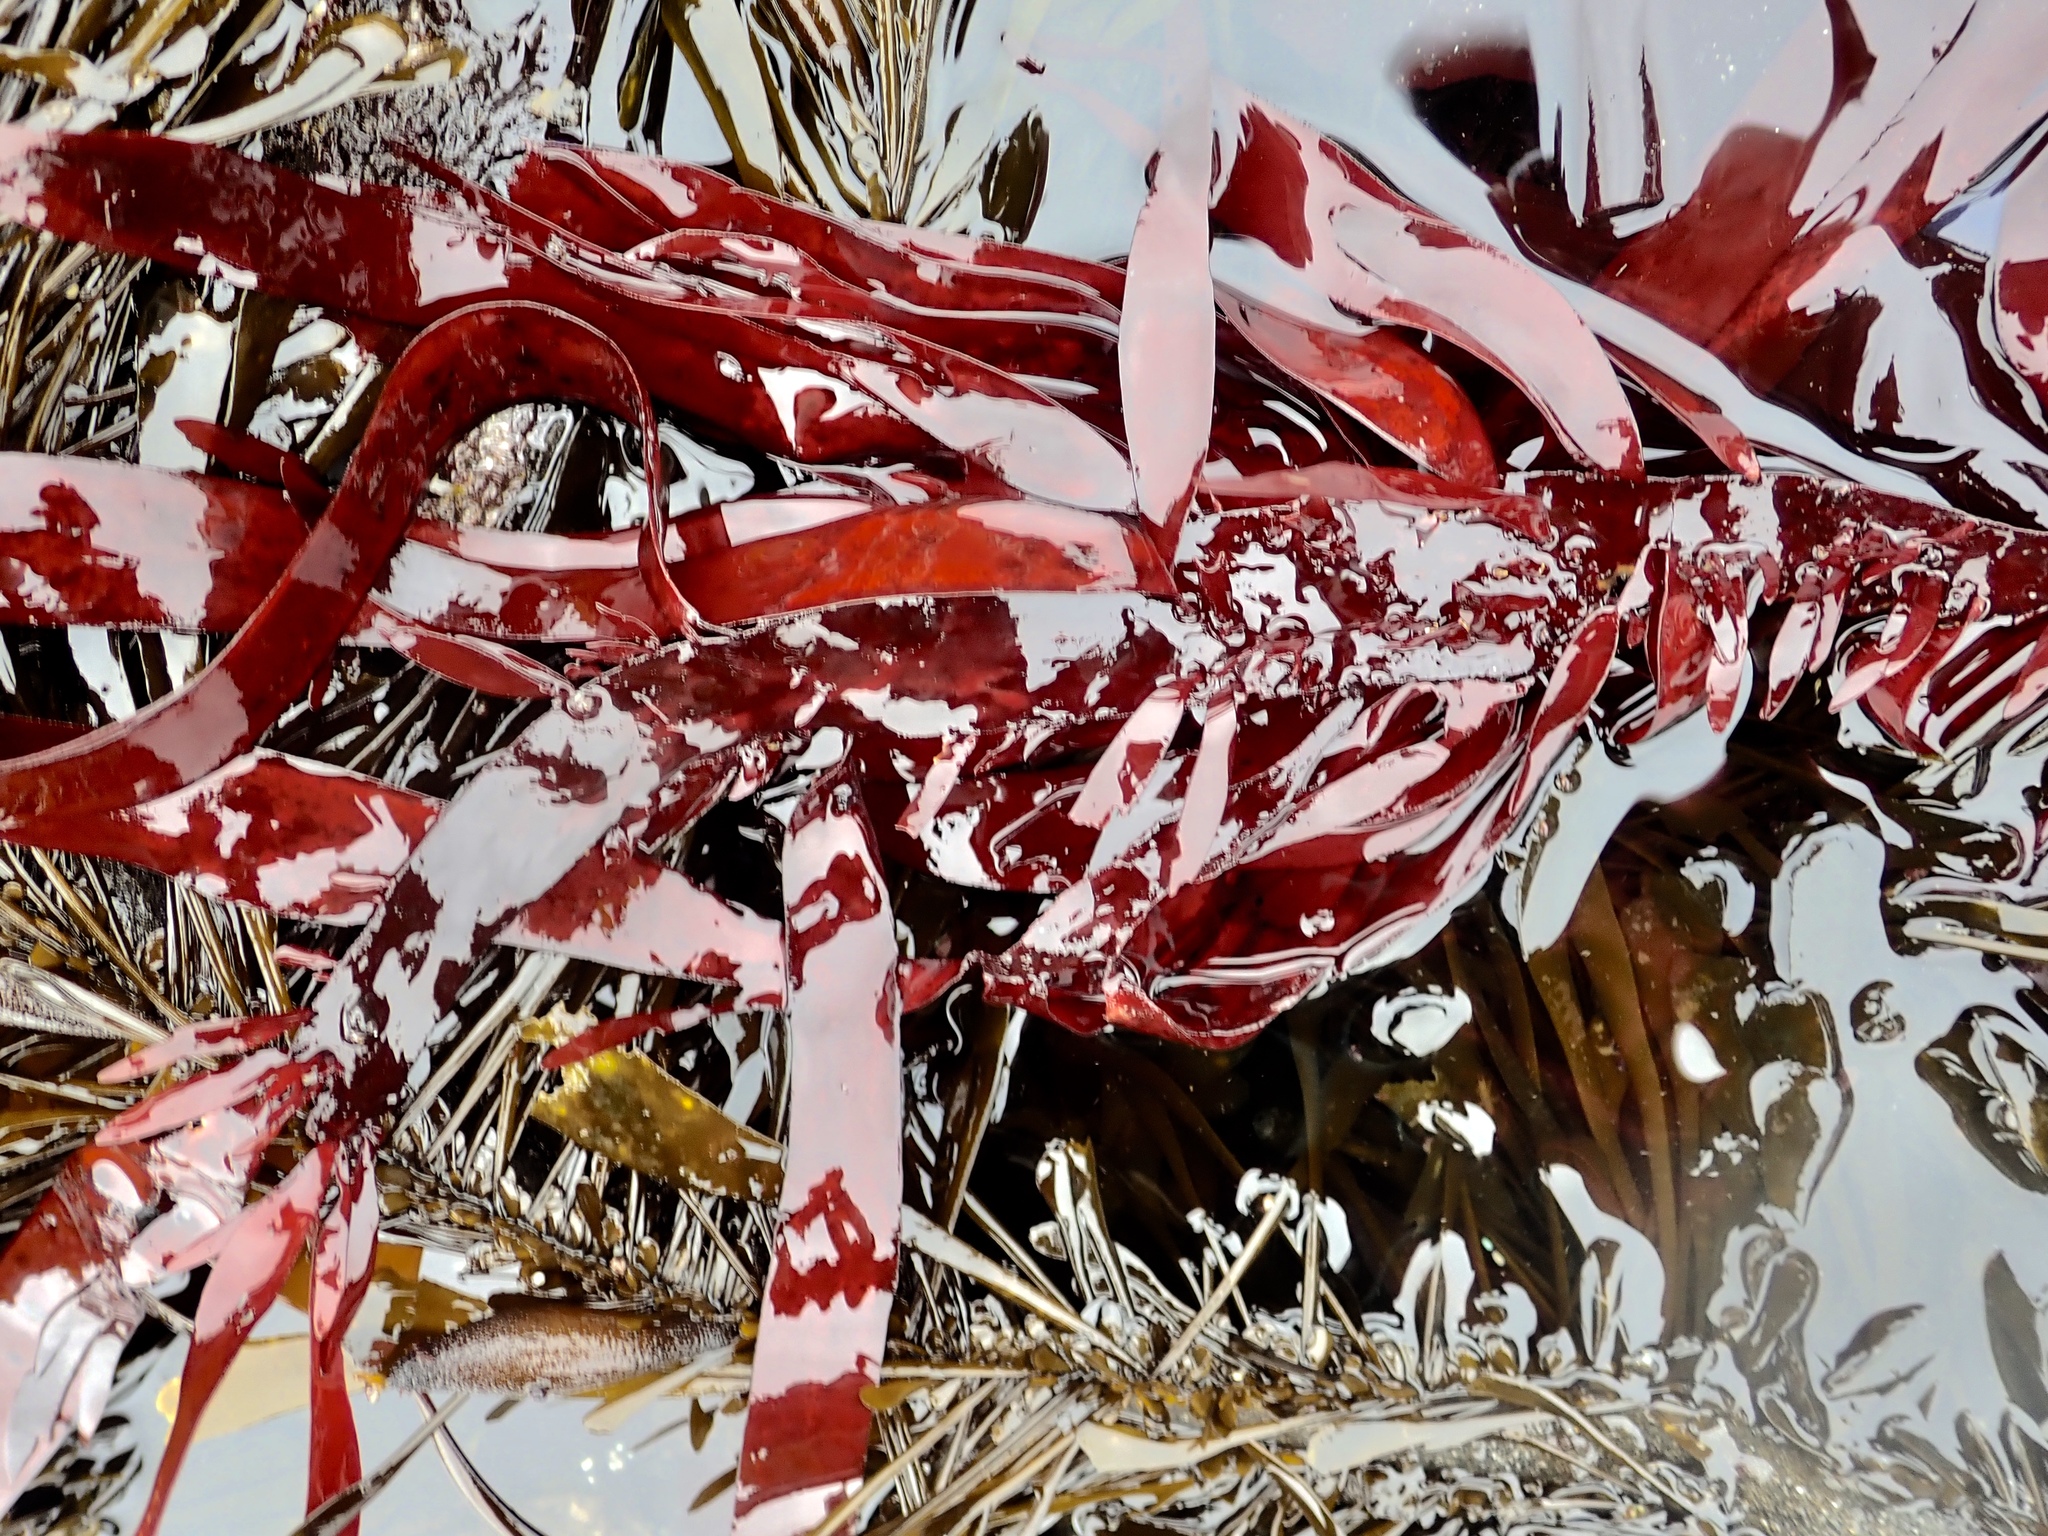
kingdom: Plantae
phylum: Rhodophyta
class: Florideophyceae
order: Halymeniales
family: Halymeniaceae
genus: Grateloupia
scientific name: Grateloupia Prionitis sternbergii
